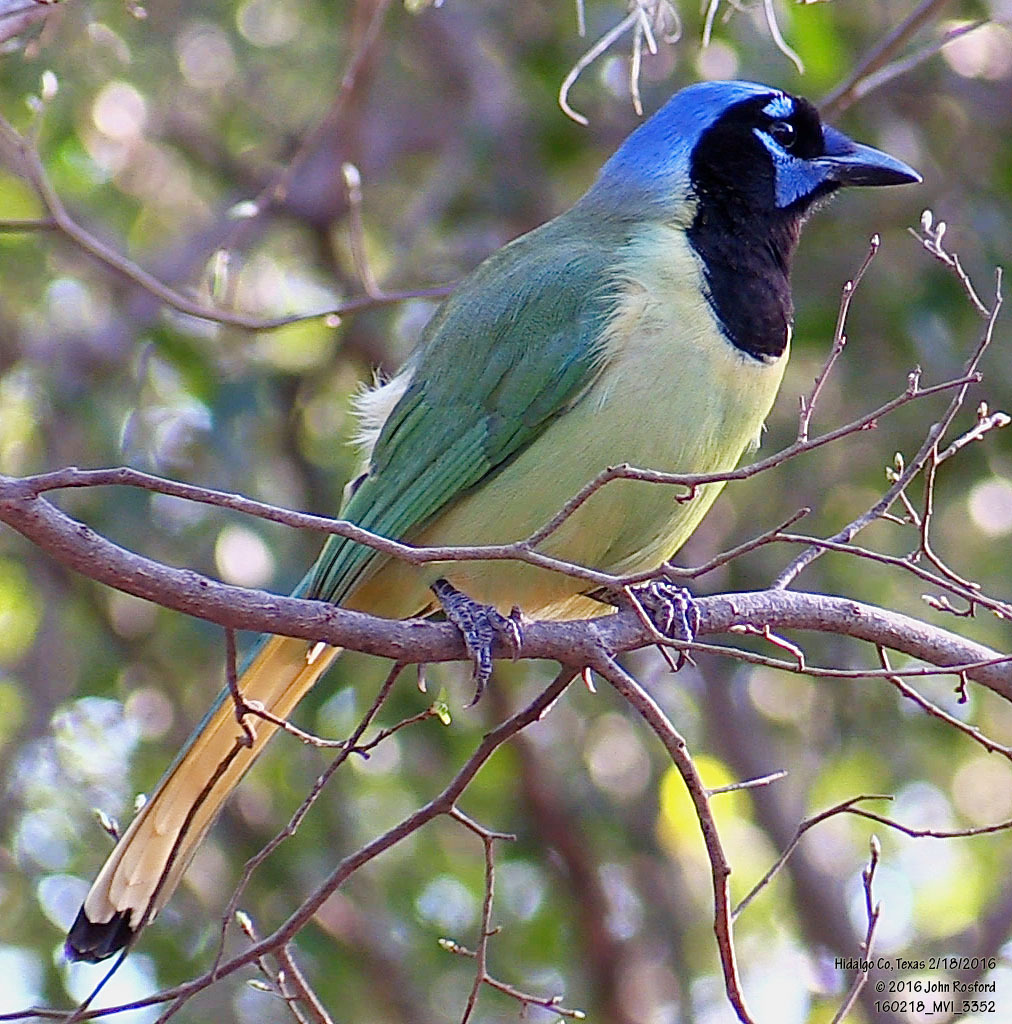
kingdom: Animalia
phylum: Chordata
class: Aves
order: Passeriformes
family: Corvidae
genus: Cyanocorax
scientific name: Cyanocorax yncas
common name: Green jay
